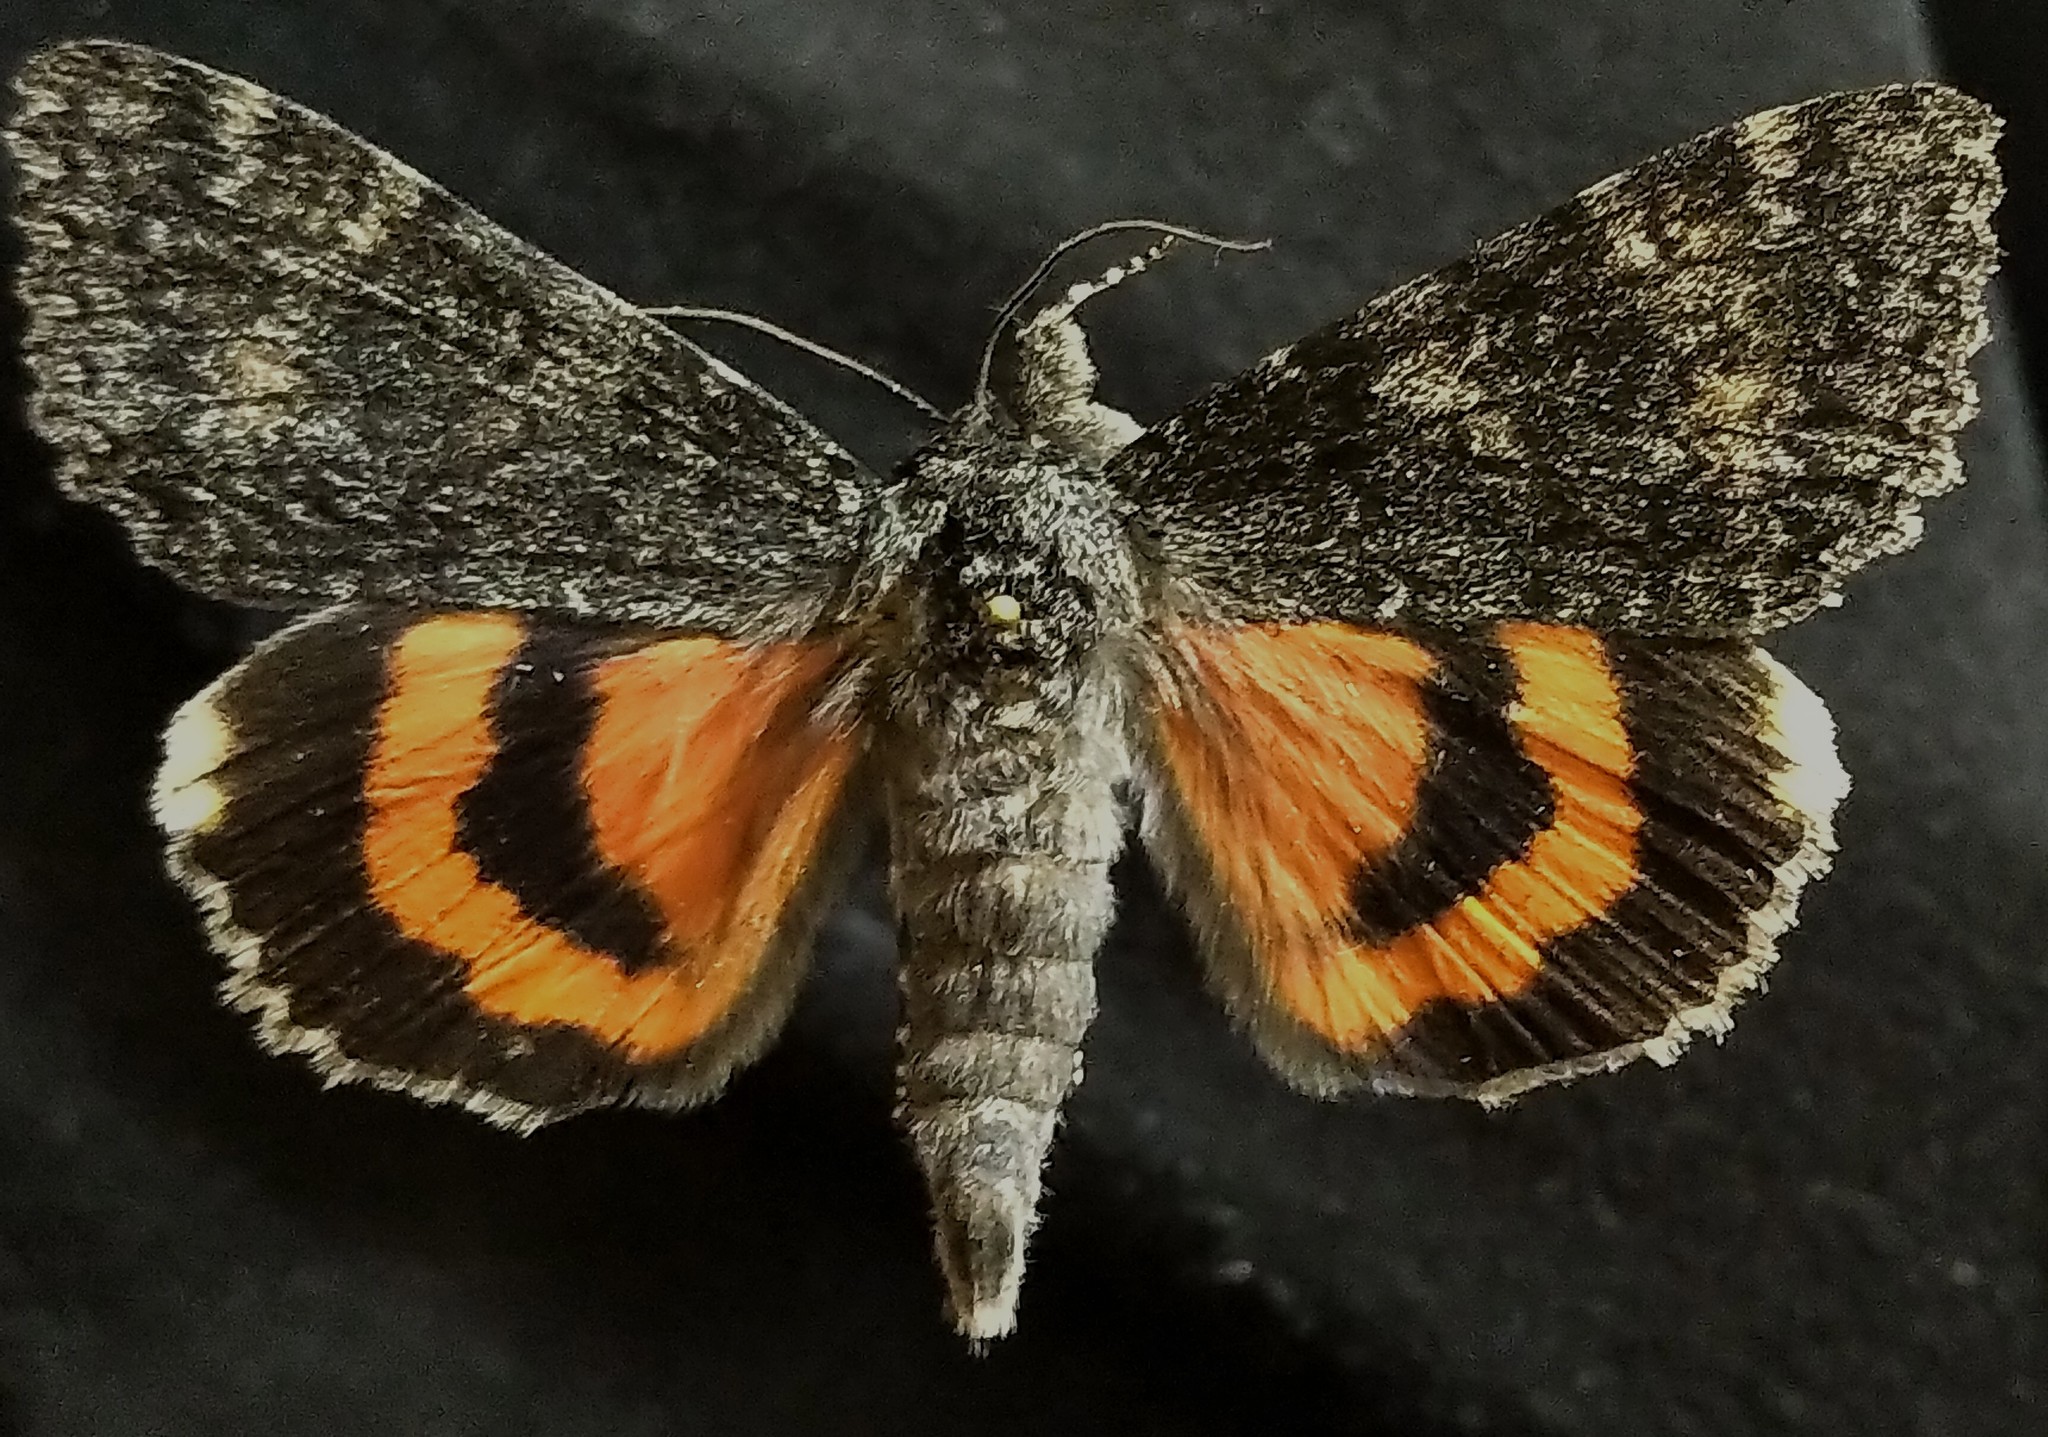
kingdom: Animalia
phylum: Arthropoda
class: Insecta
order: Lepidoptera
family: Erebidae
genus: Catocala
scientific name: Catocala briseis
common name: Briseis underwing
